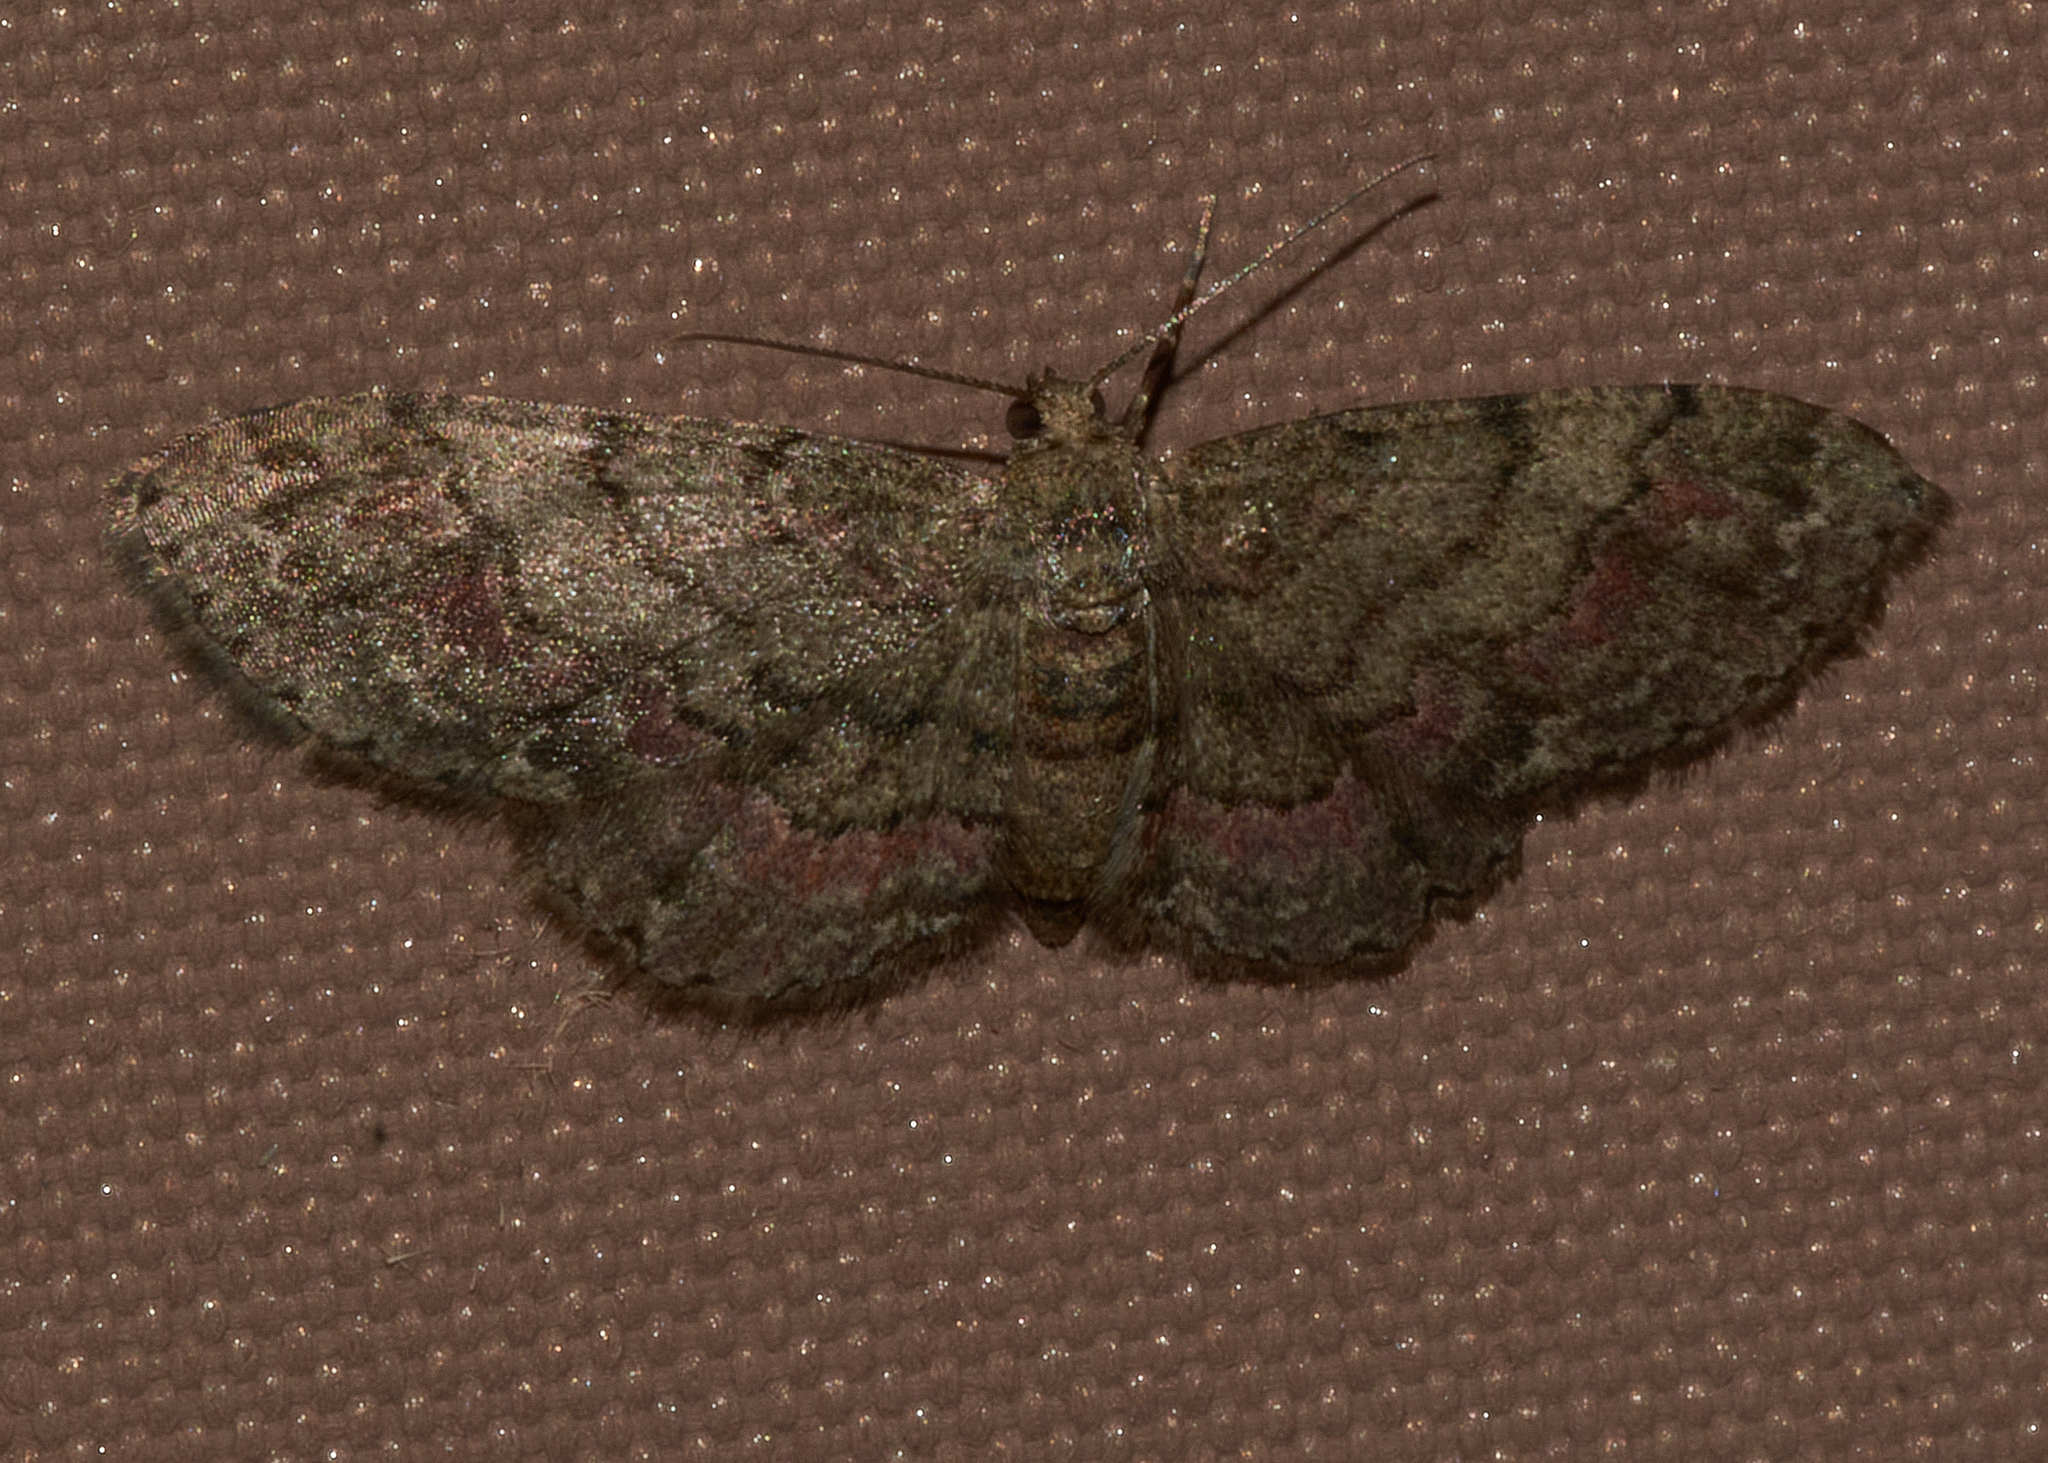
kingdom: Animalia
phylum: Arthropoda
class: Insecta
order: Lepidoptera
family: Geometridae
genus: Glenoides
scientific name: Glenoides texanaria
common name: Texas gray
